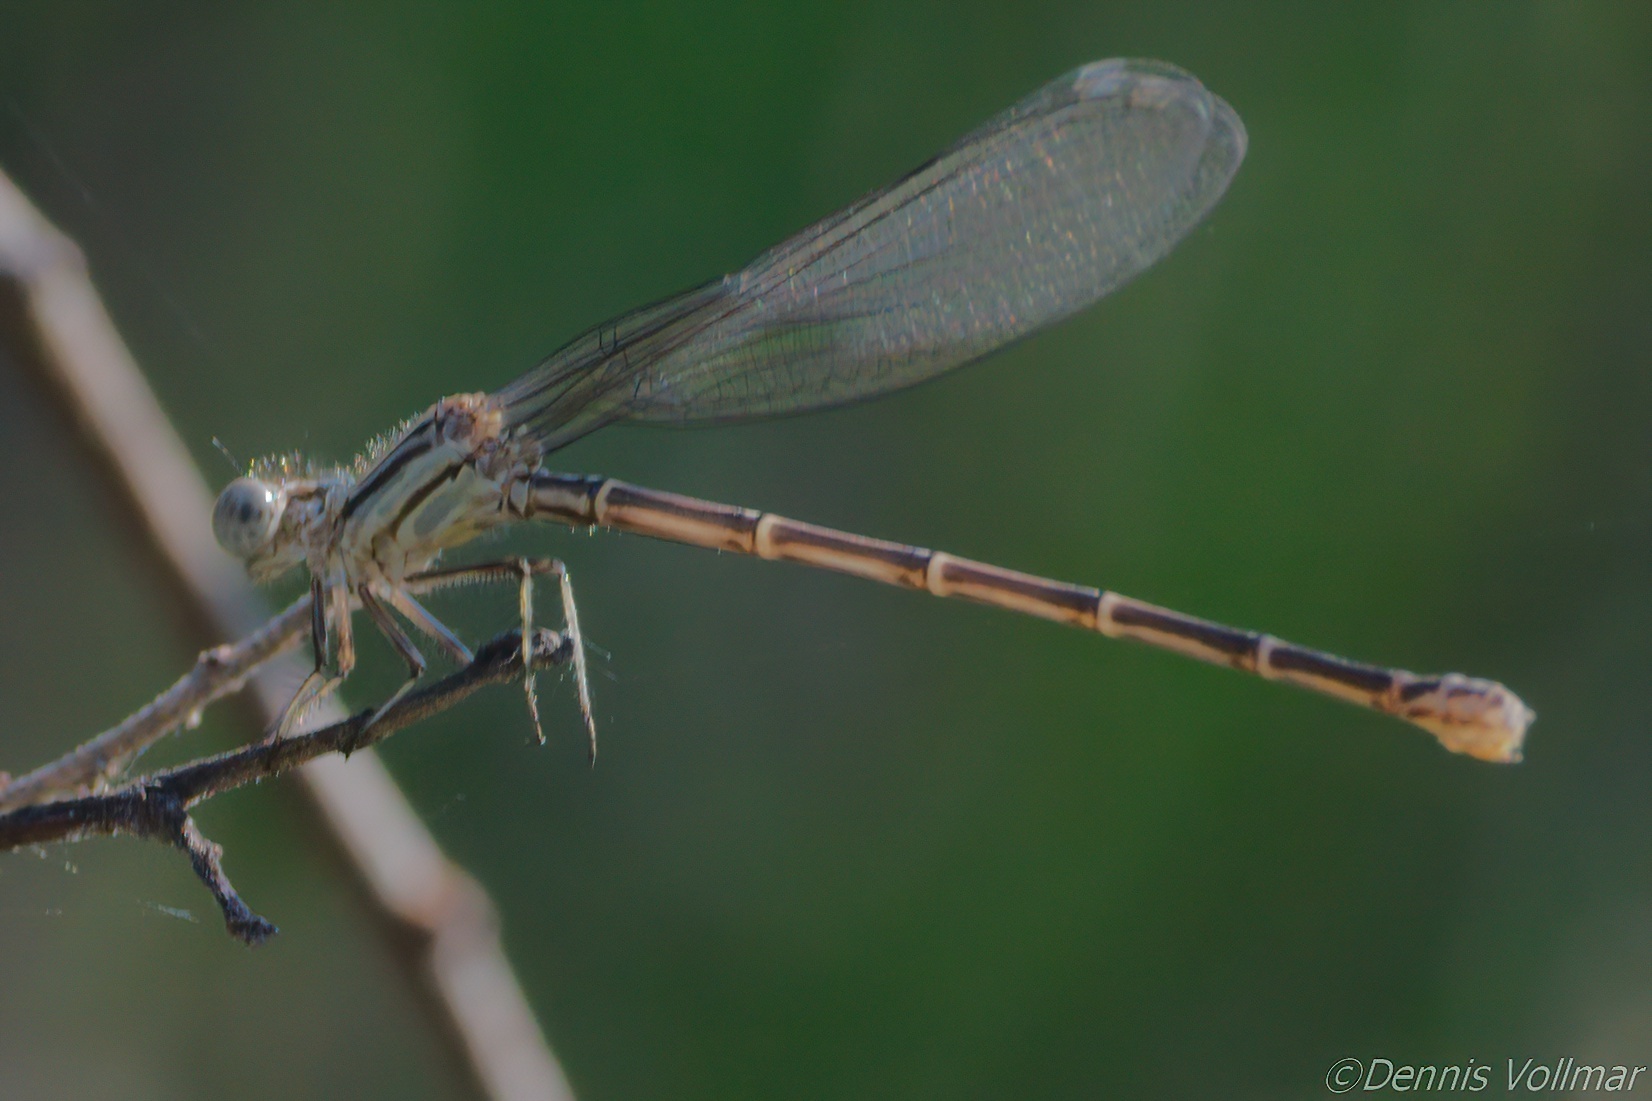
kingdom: Animalia
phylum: Arthropoda
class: Insecta
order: Odonata
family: Coenagrionidae
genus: Argia
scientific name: Argia translata
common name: Dusky dancer
